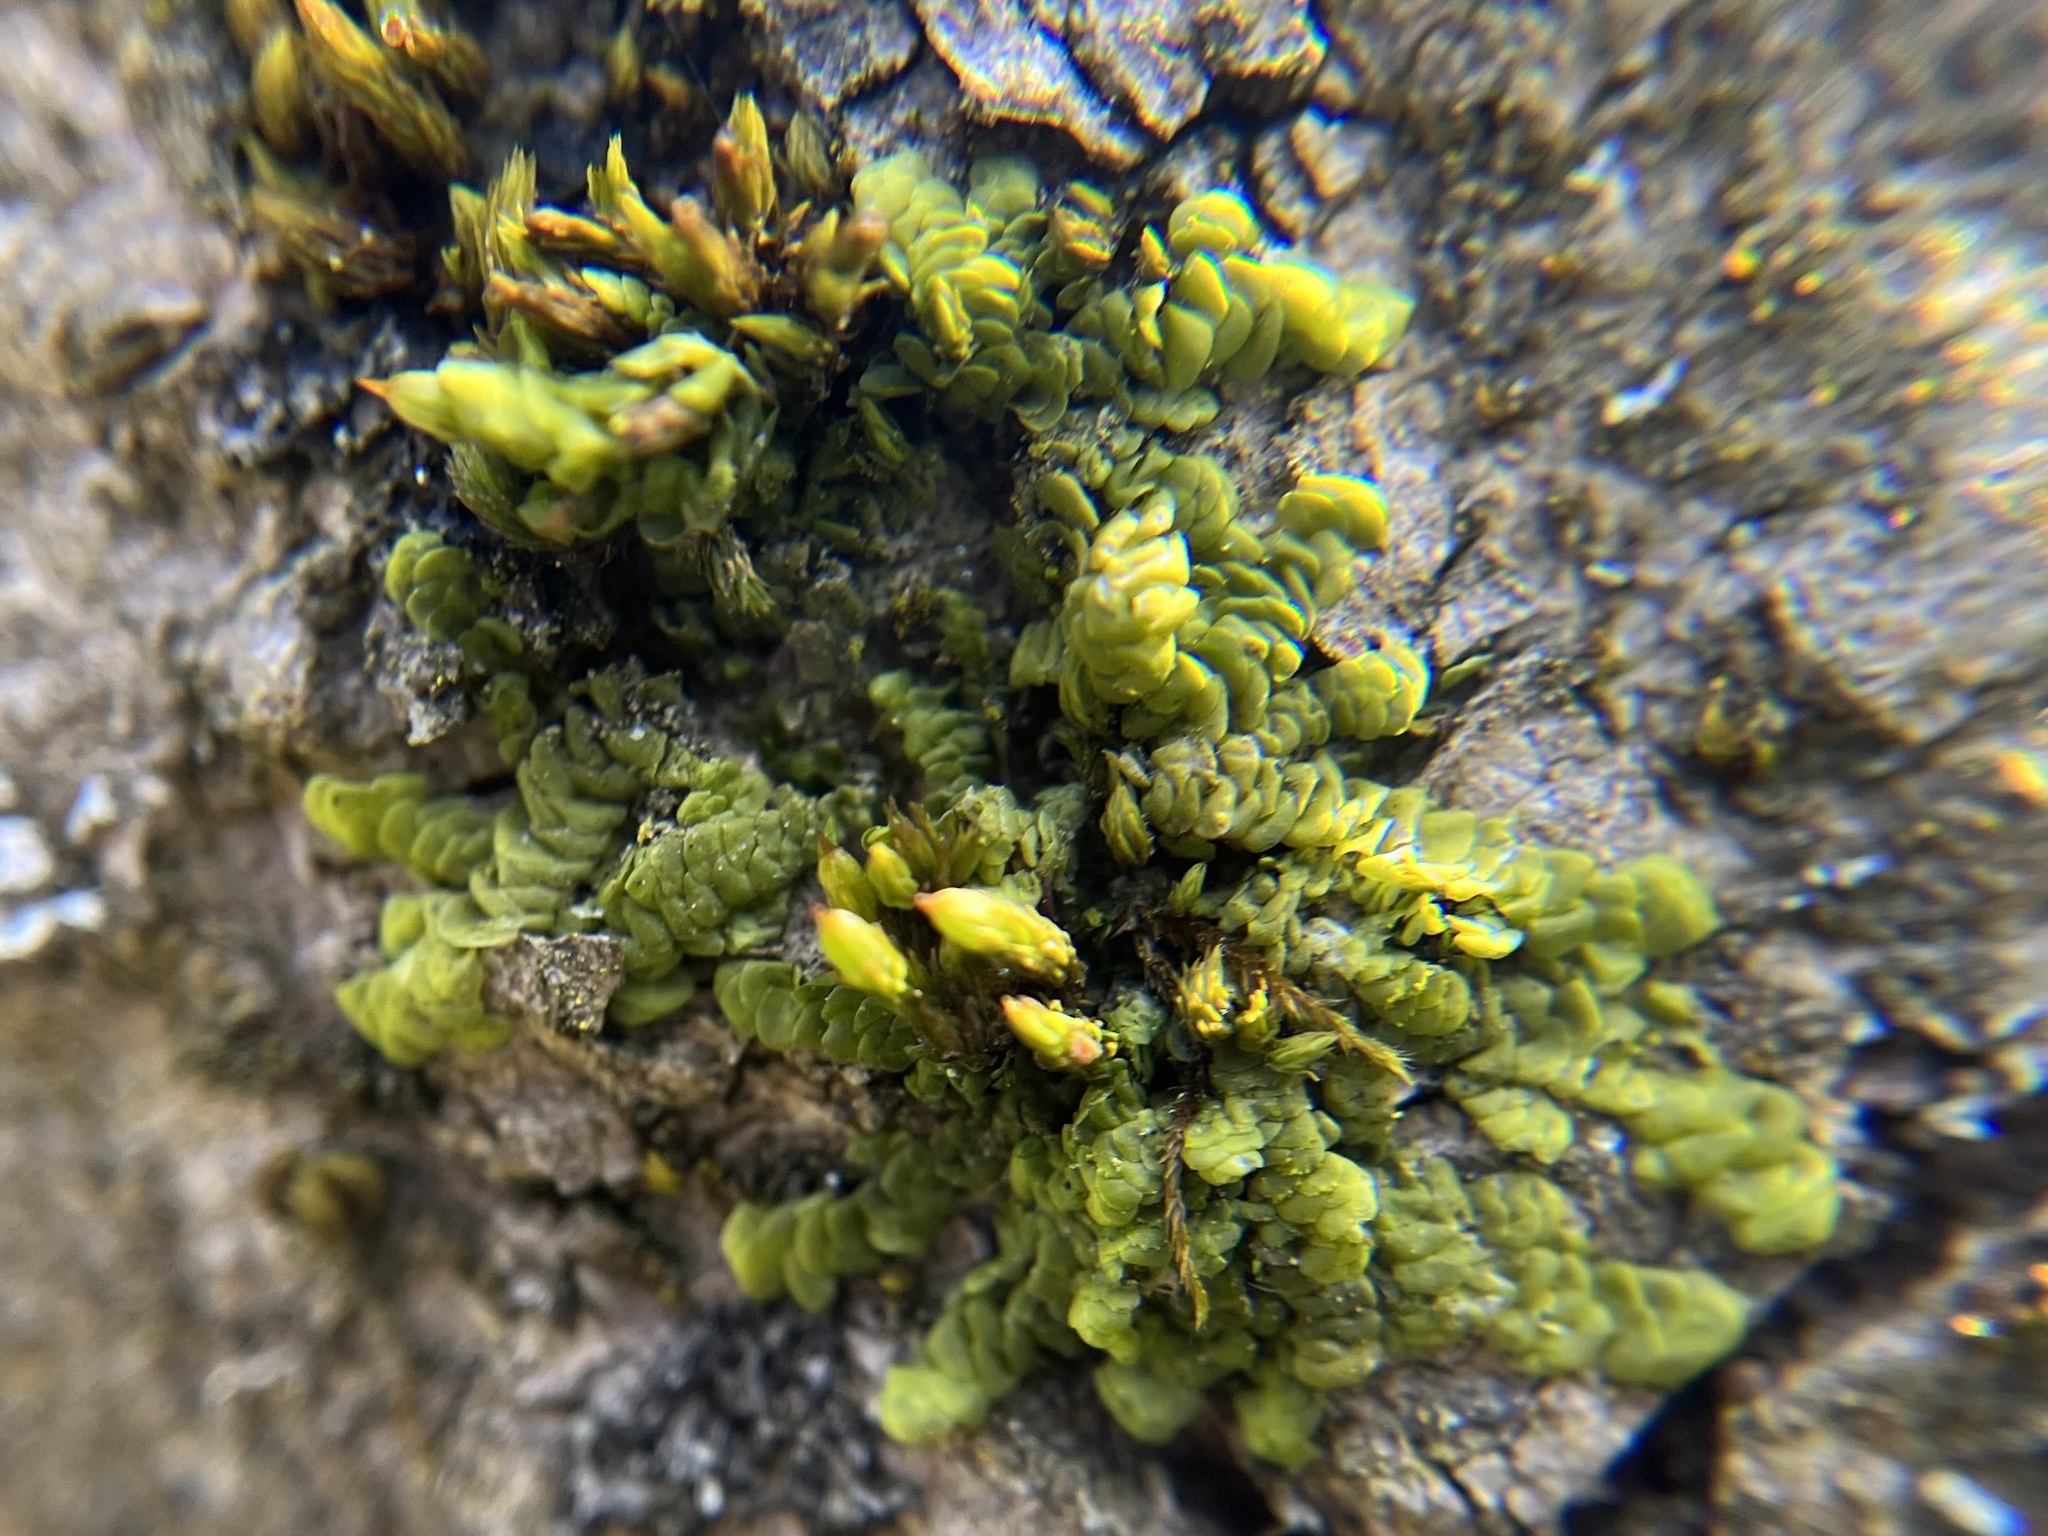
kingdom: Plantae
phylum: Marchantiophyta
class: Jungermanniopsida
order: Porellales
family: Radulaceae
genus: Radula
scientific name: Radula complanata
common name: Flat-leaved scalewort
